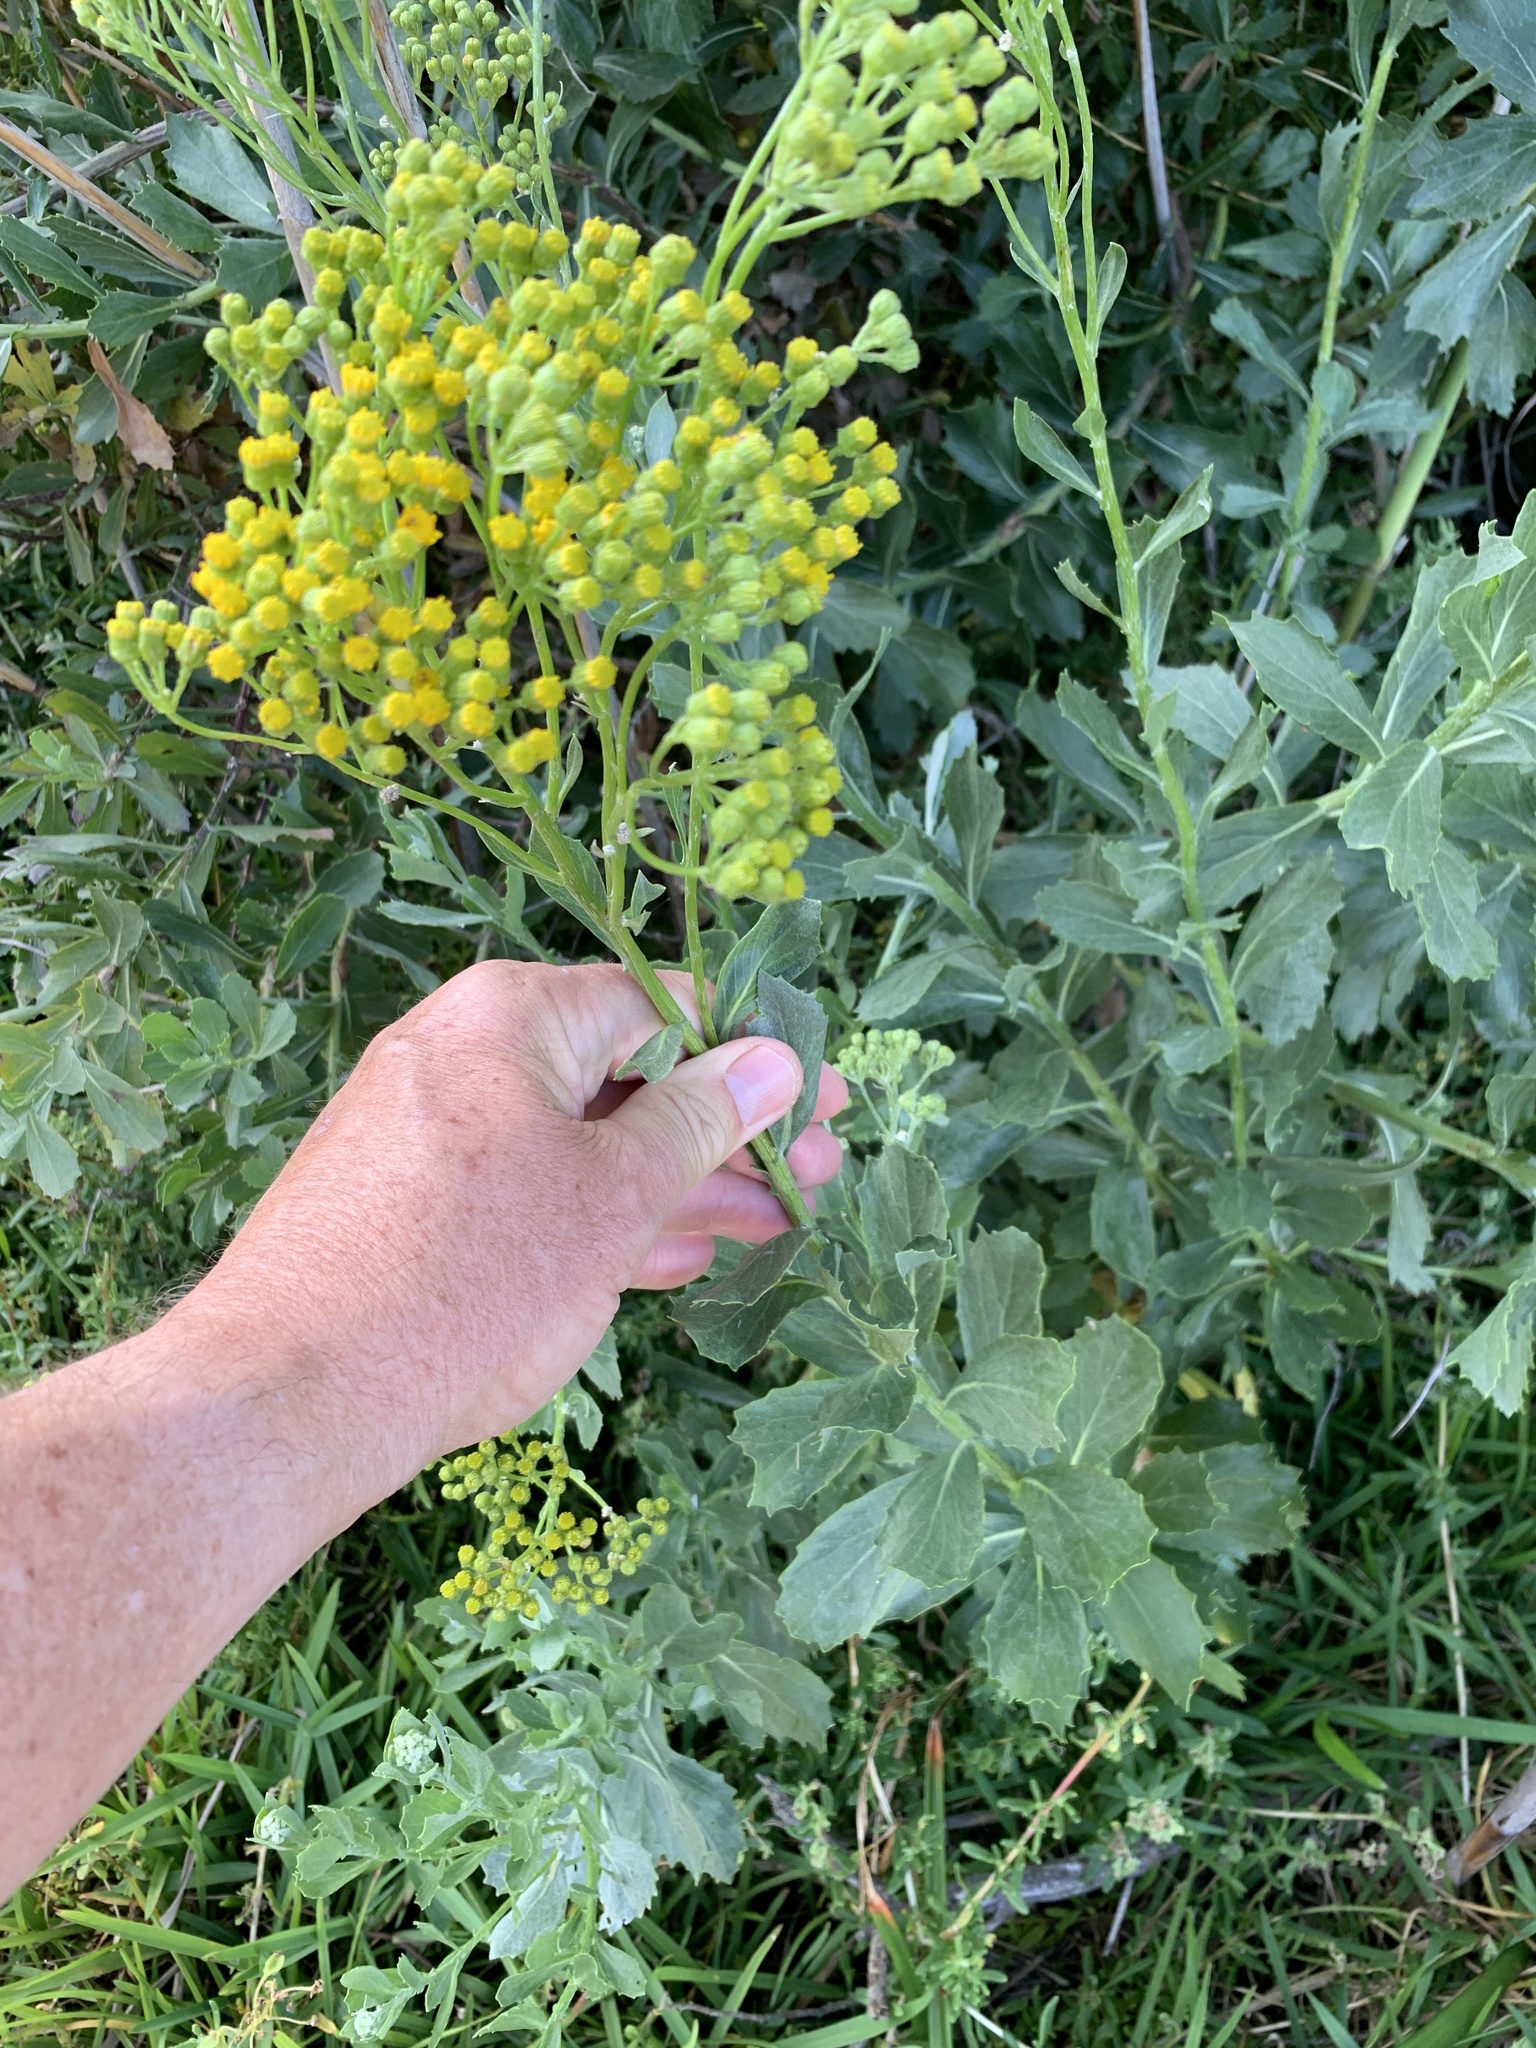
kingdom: Plantae
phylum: Tracheophyta
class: Magnoliopsida
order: Asterales
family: Asteraceae
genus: Senecio
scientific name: Senecio halimifolius
